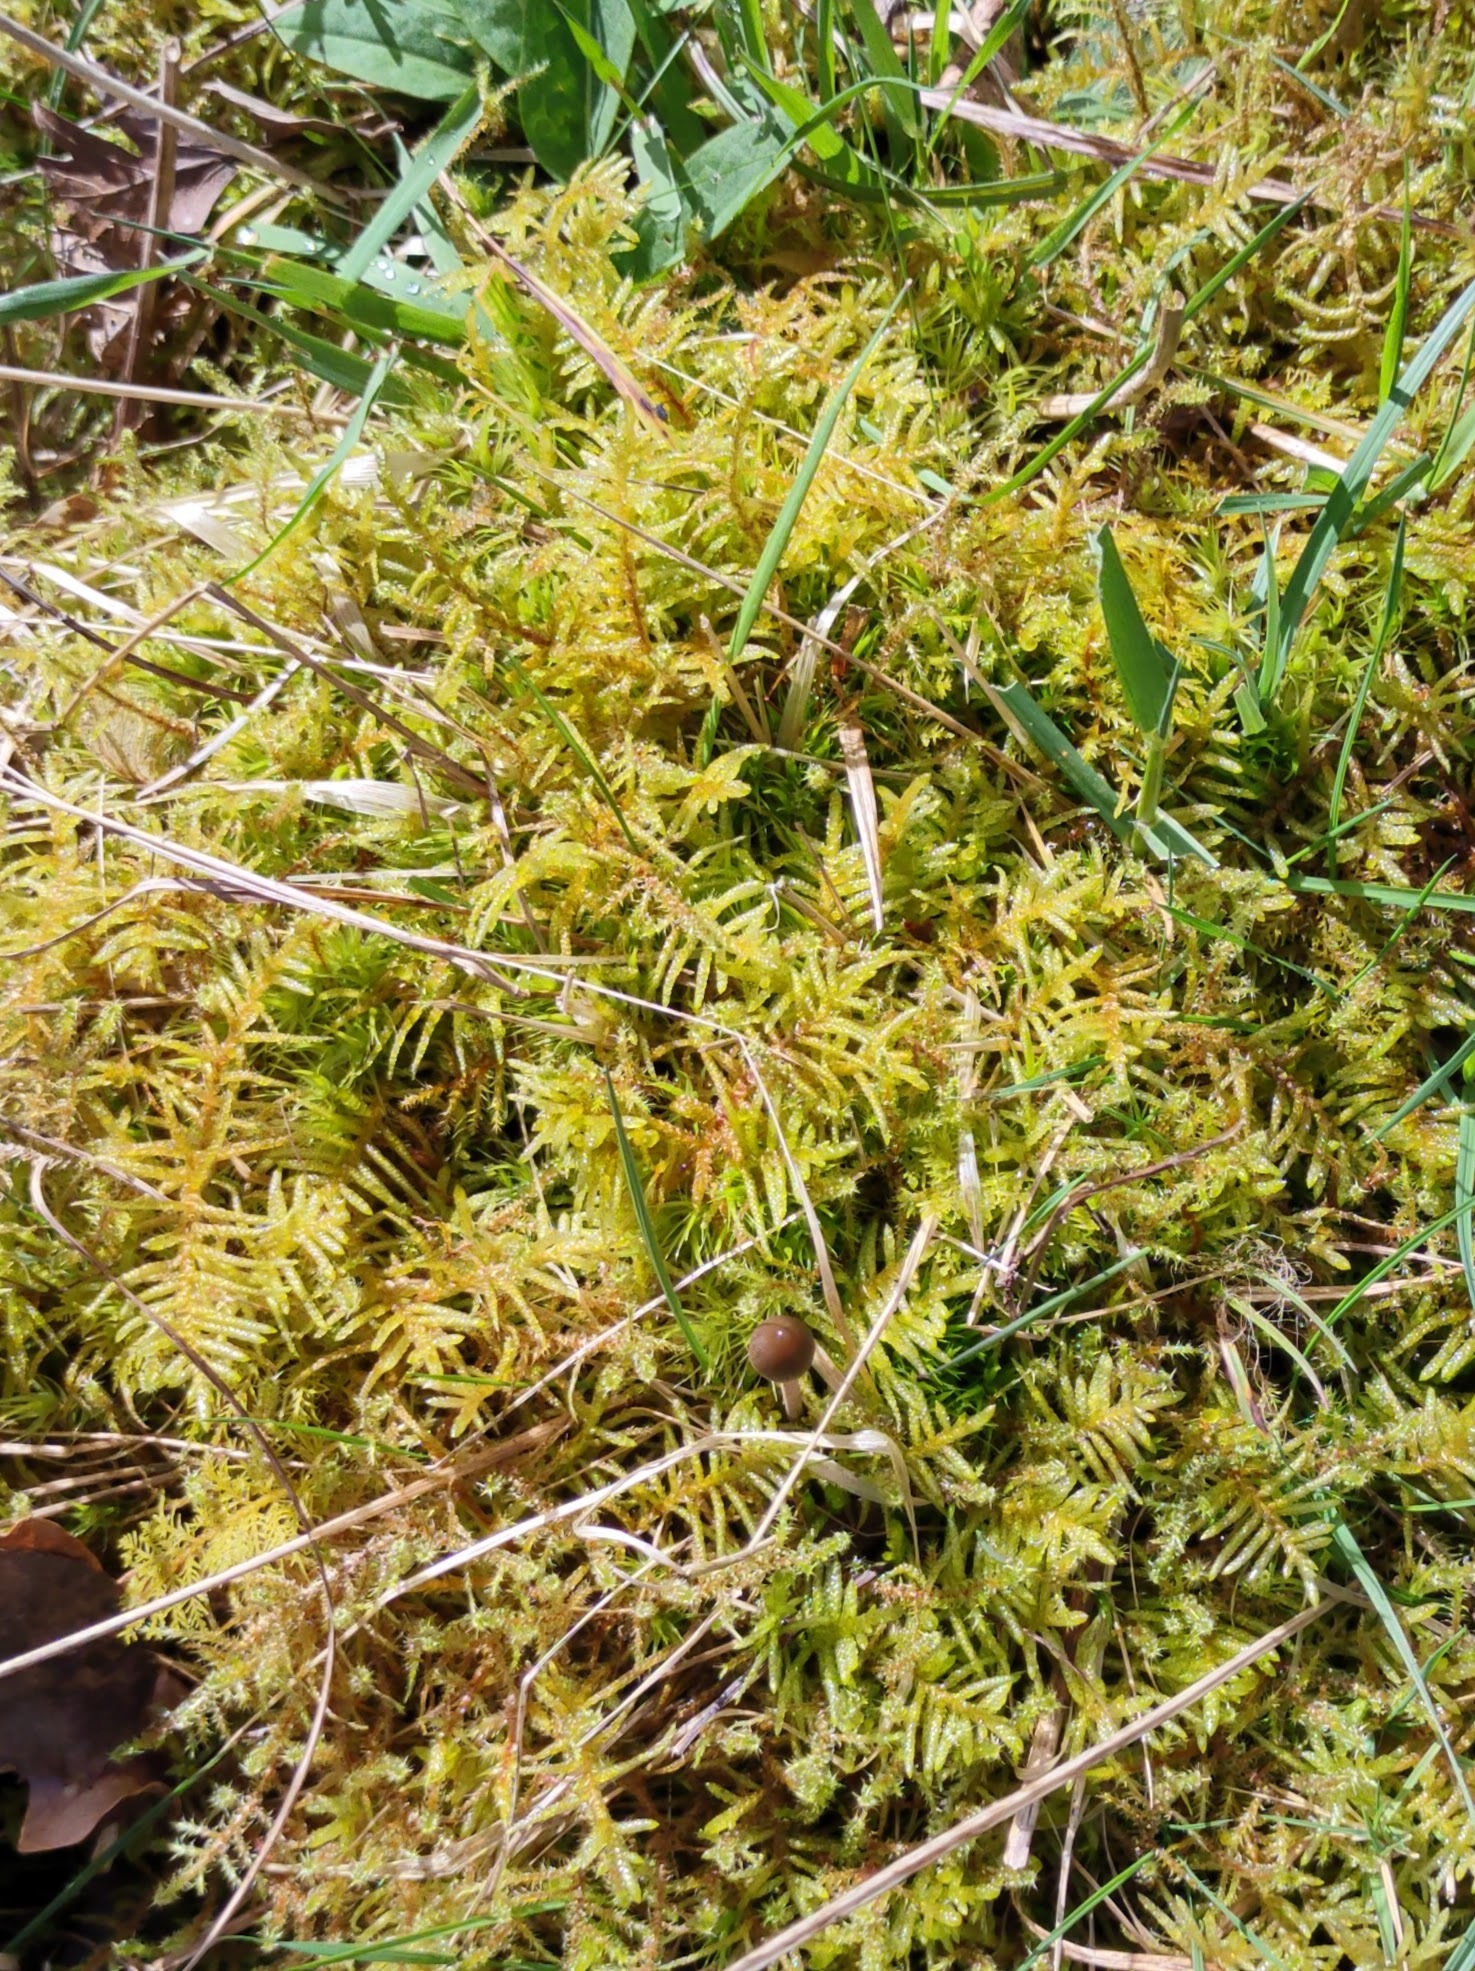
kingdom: Plantae
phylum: Bryophyta
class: Bryopsida
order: Hypnales
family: Brachytheciaceae
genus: Pseudoscleropodium
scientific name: Pseudoscleropodium purum
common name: Neat feather-moss
